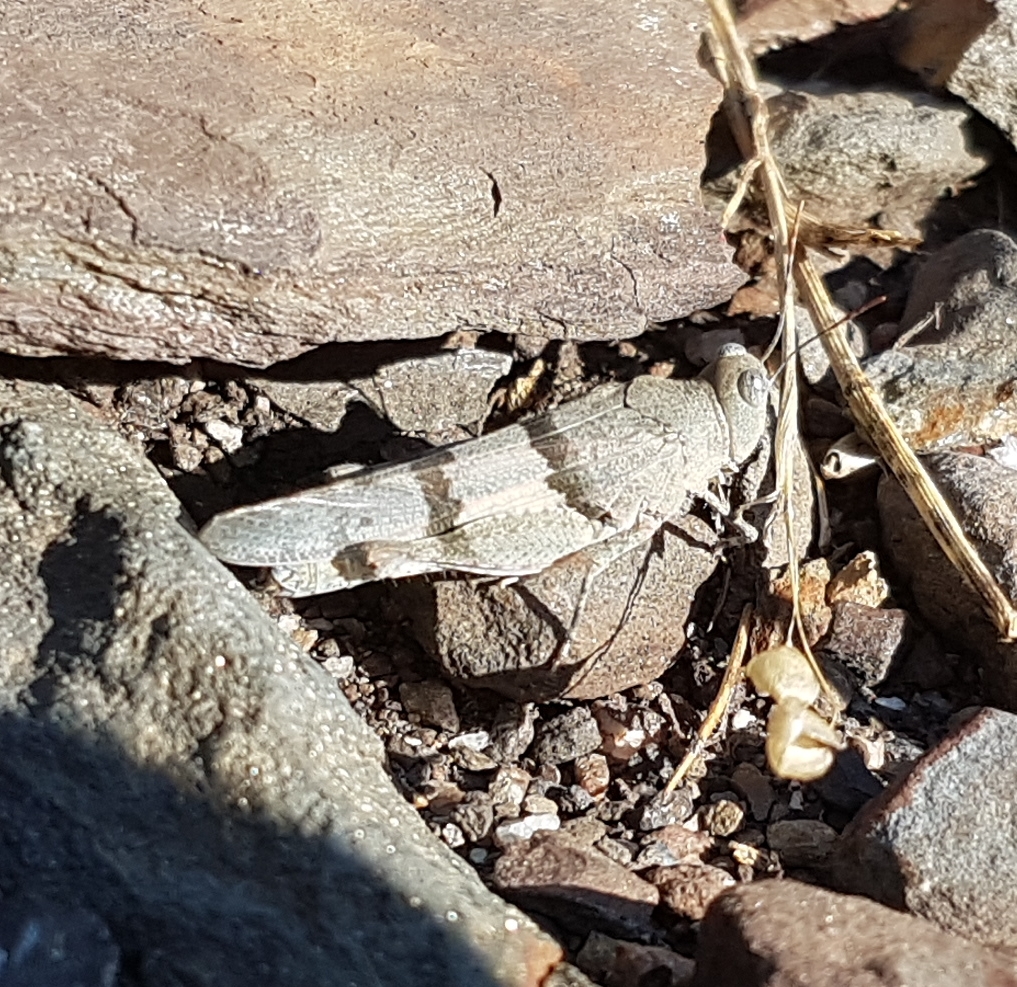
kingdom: Animalia
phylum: Arthropoda
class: Insecta
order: Orthoptera
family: Acrididae
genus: Sphingonotus
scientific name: Sphingonotus lluciapomaresi
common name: Iberian sand grasshopper
